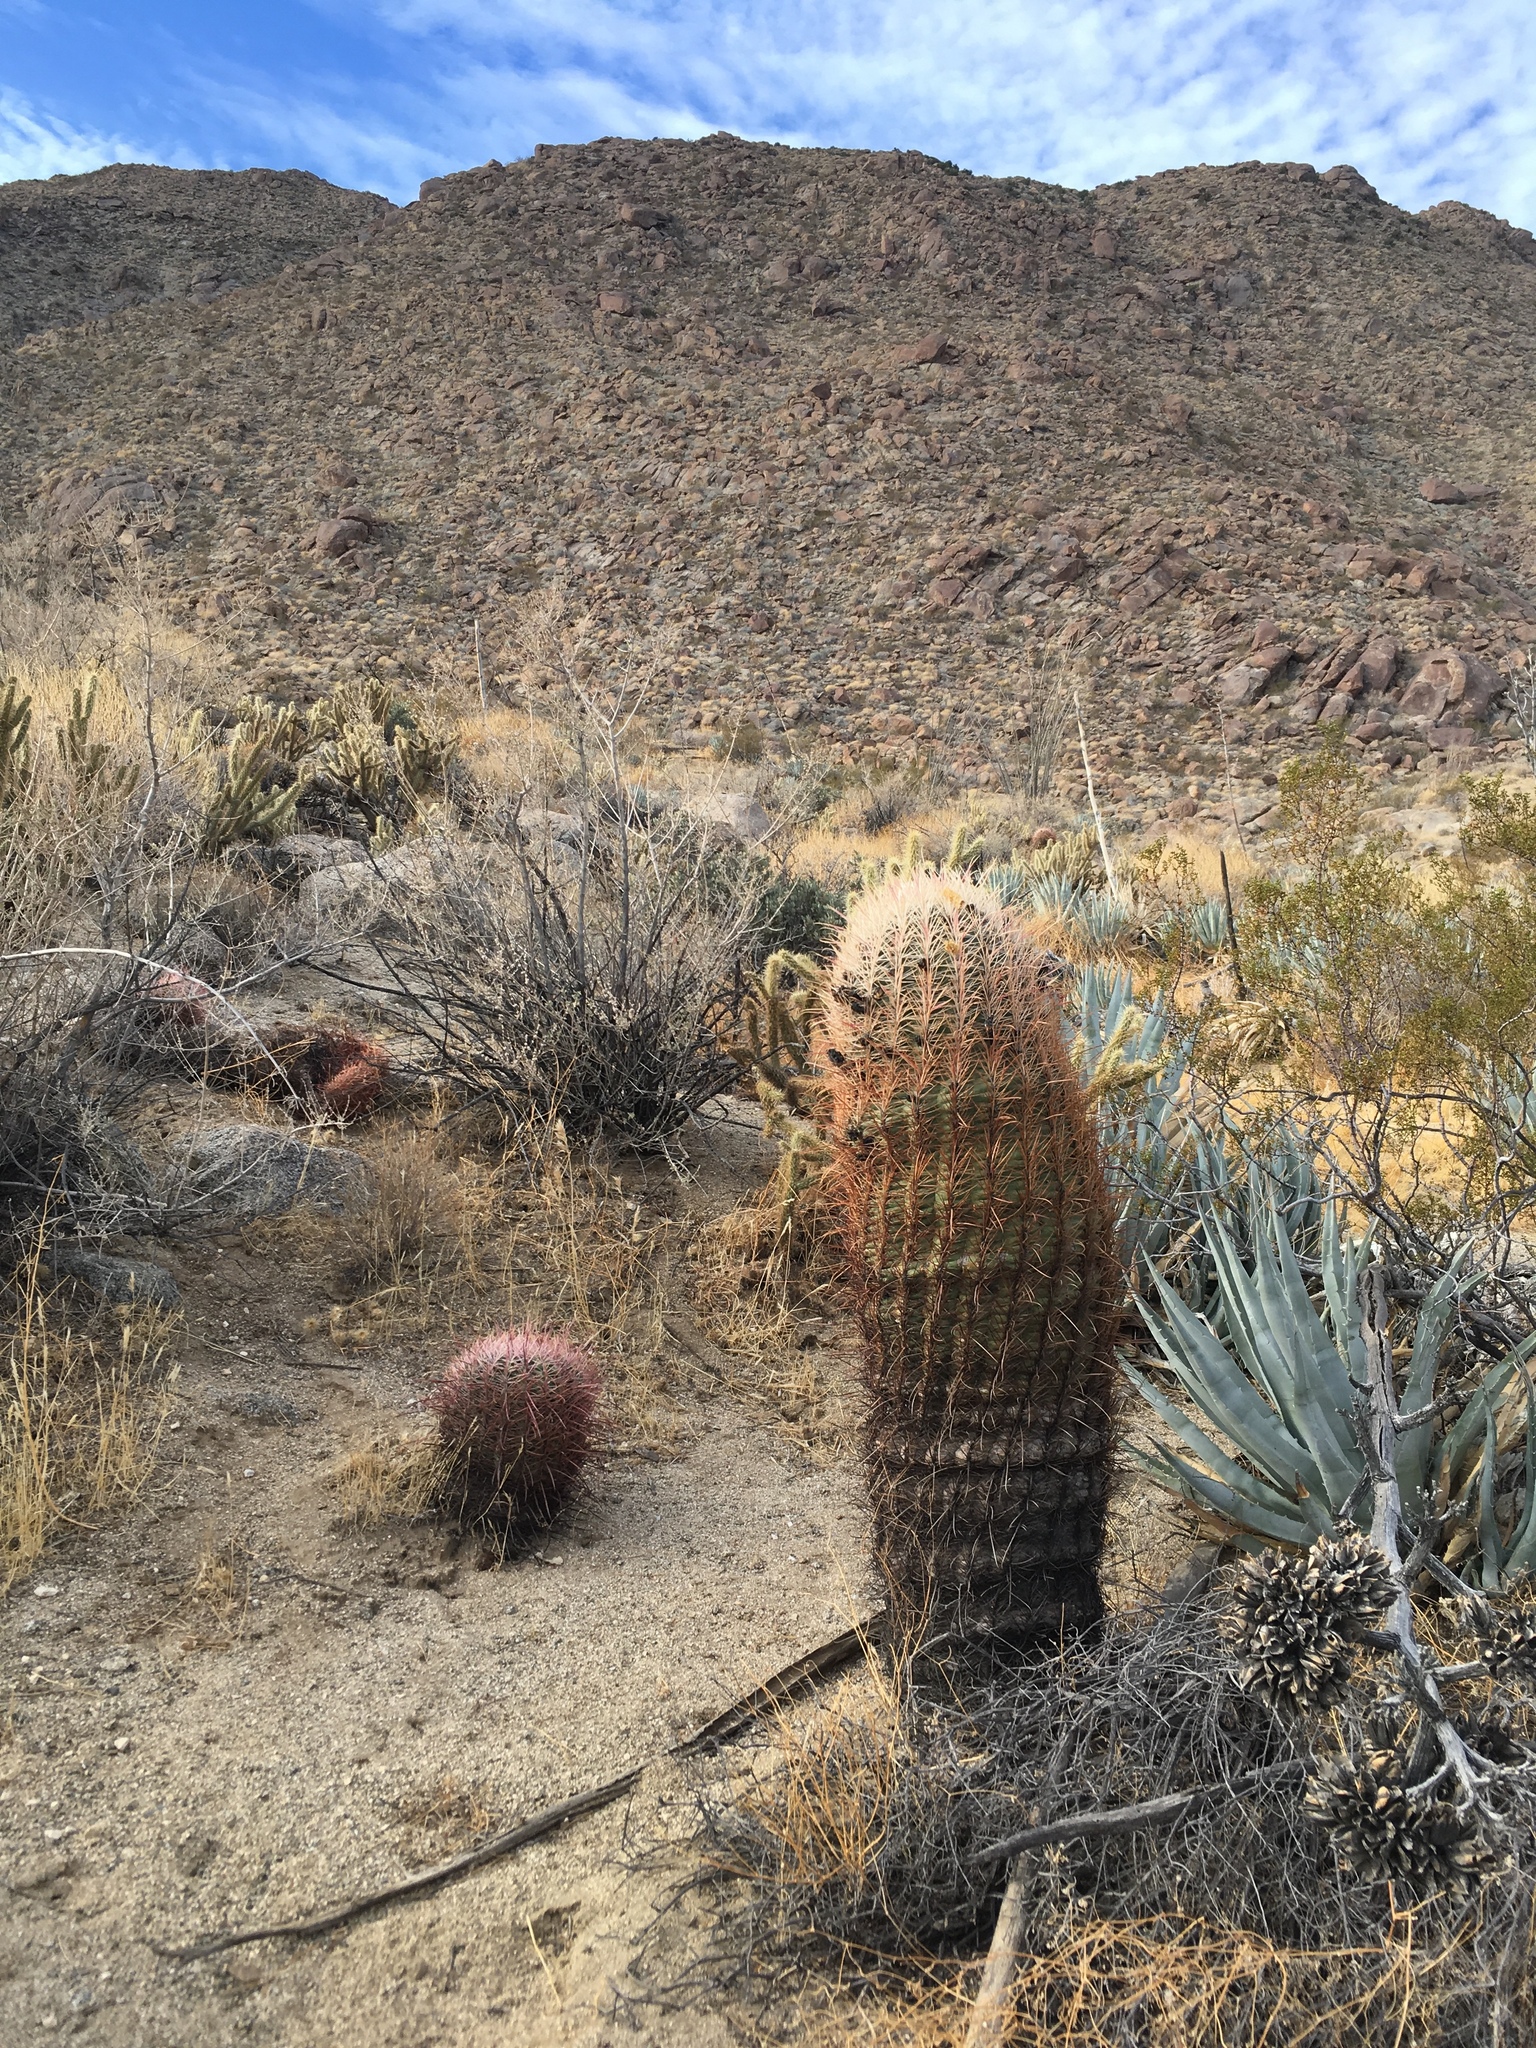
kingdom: Plantae
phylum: Tracheophyta
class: Magnoliopsida
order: Caryophyllales
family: Cactaceae
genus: Ferocactus
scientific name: Ferocactus cylindraceus
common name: California barrel cactus
